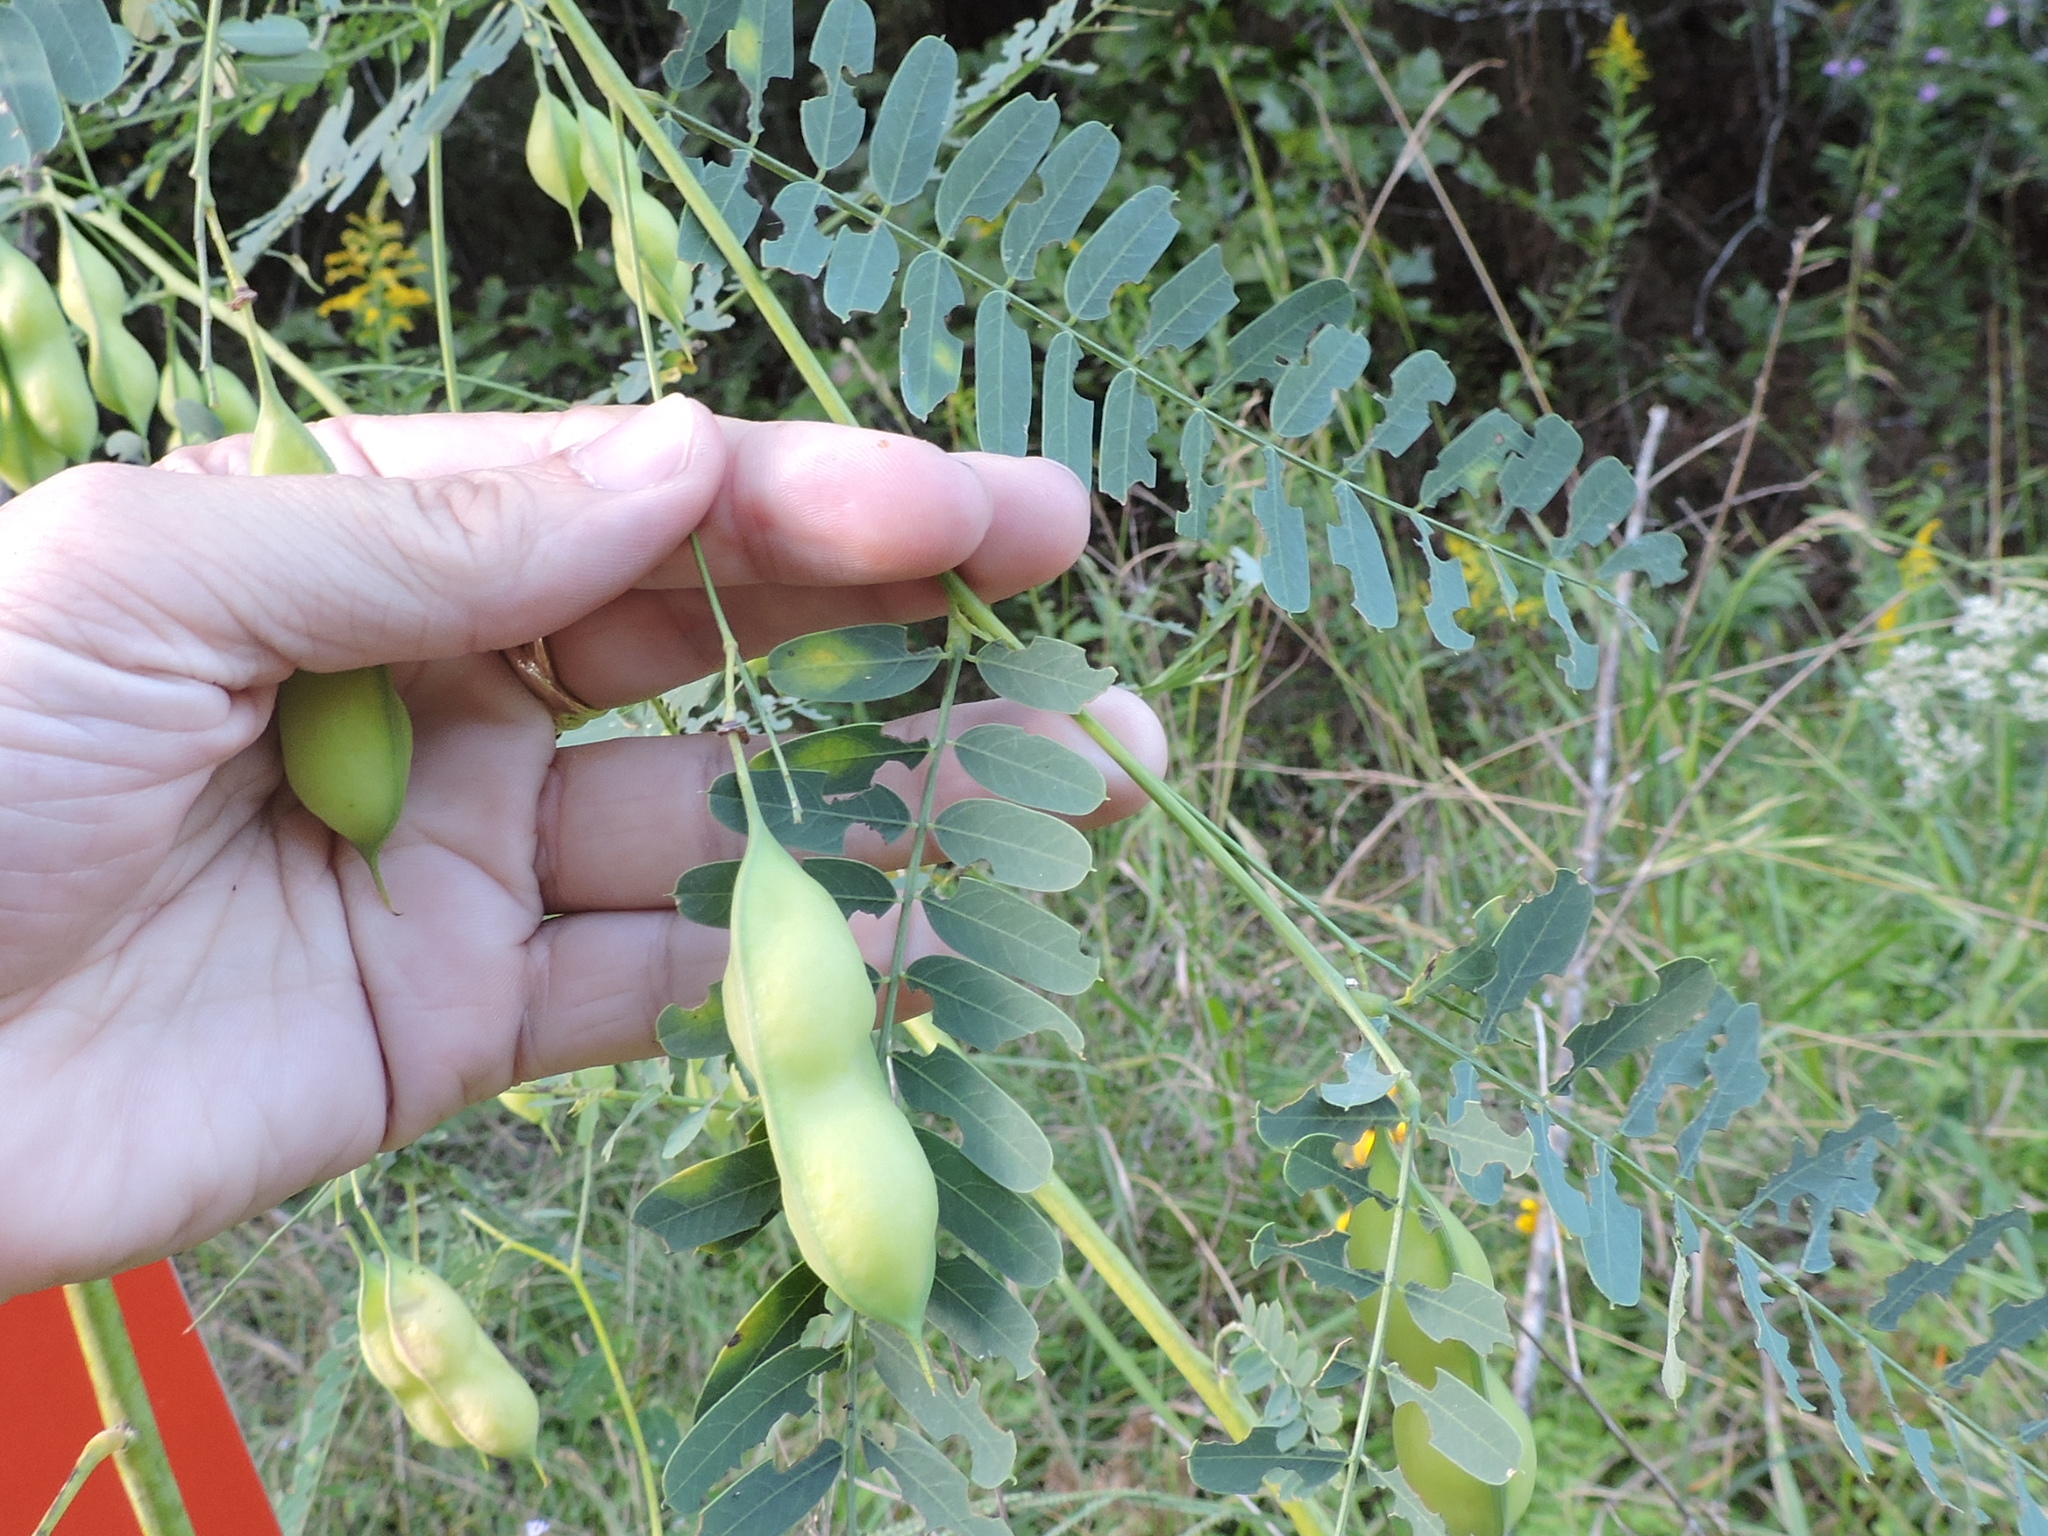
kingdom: Plantae
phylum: Tracheophyta
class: Magnoliopsida
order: Fabales
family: Fabaceae
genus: Sesbania
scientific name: Sesbania vesicaria
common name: Bagpod
